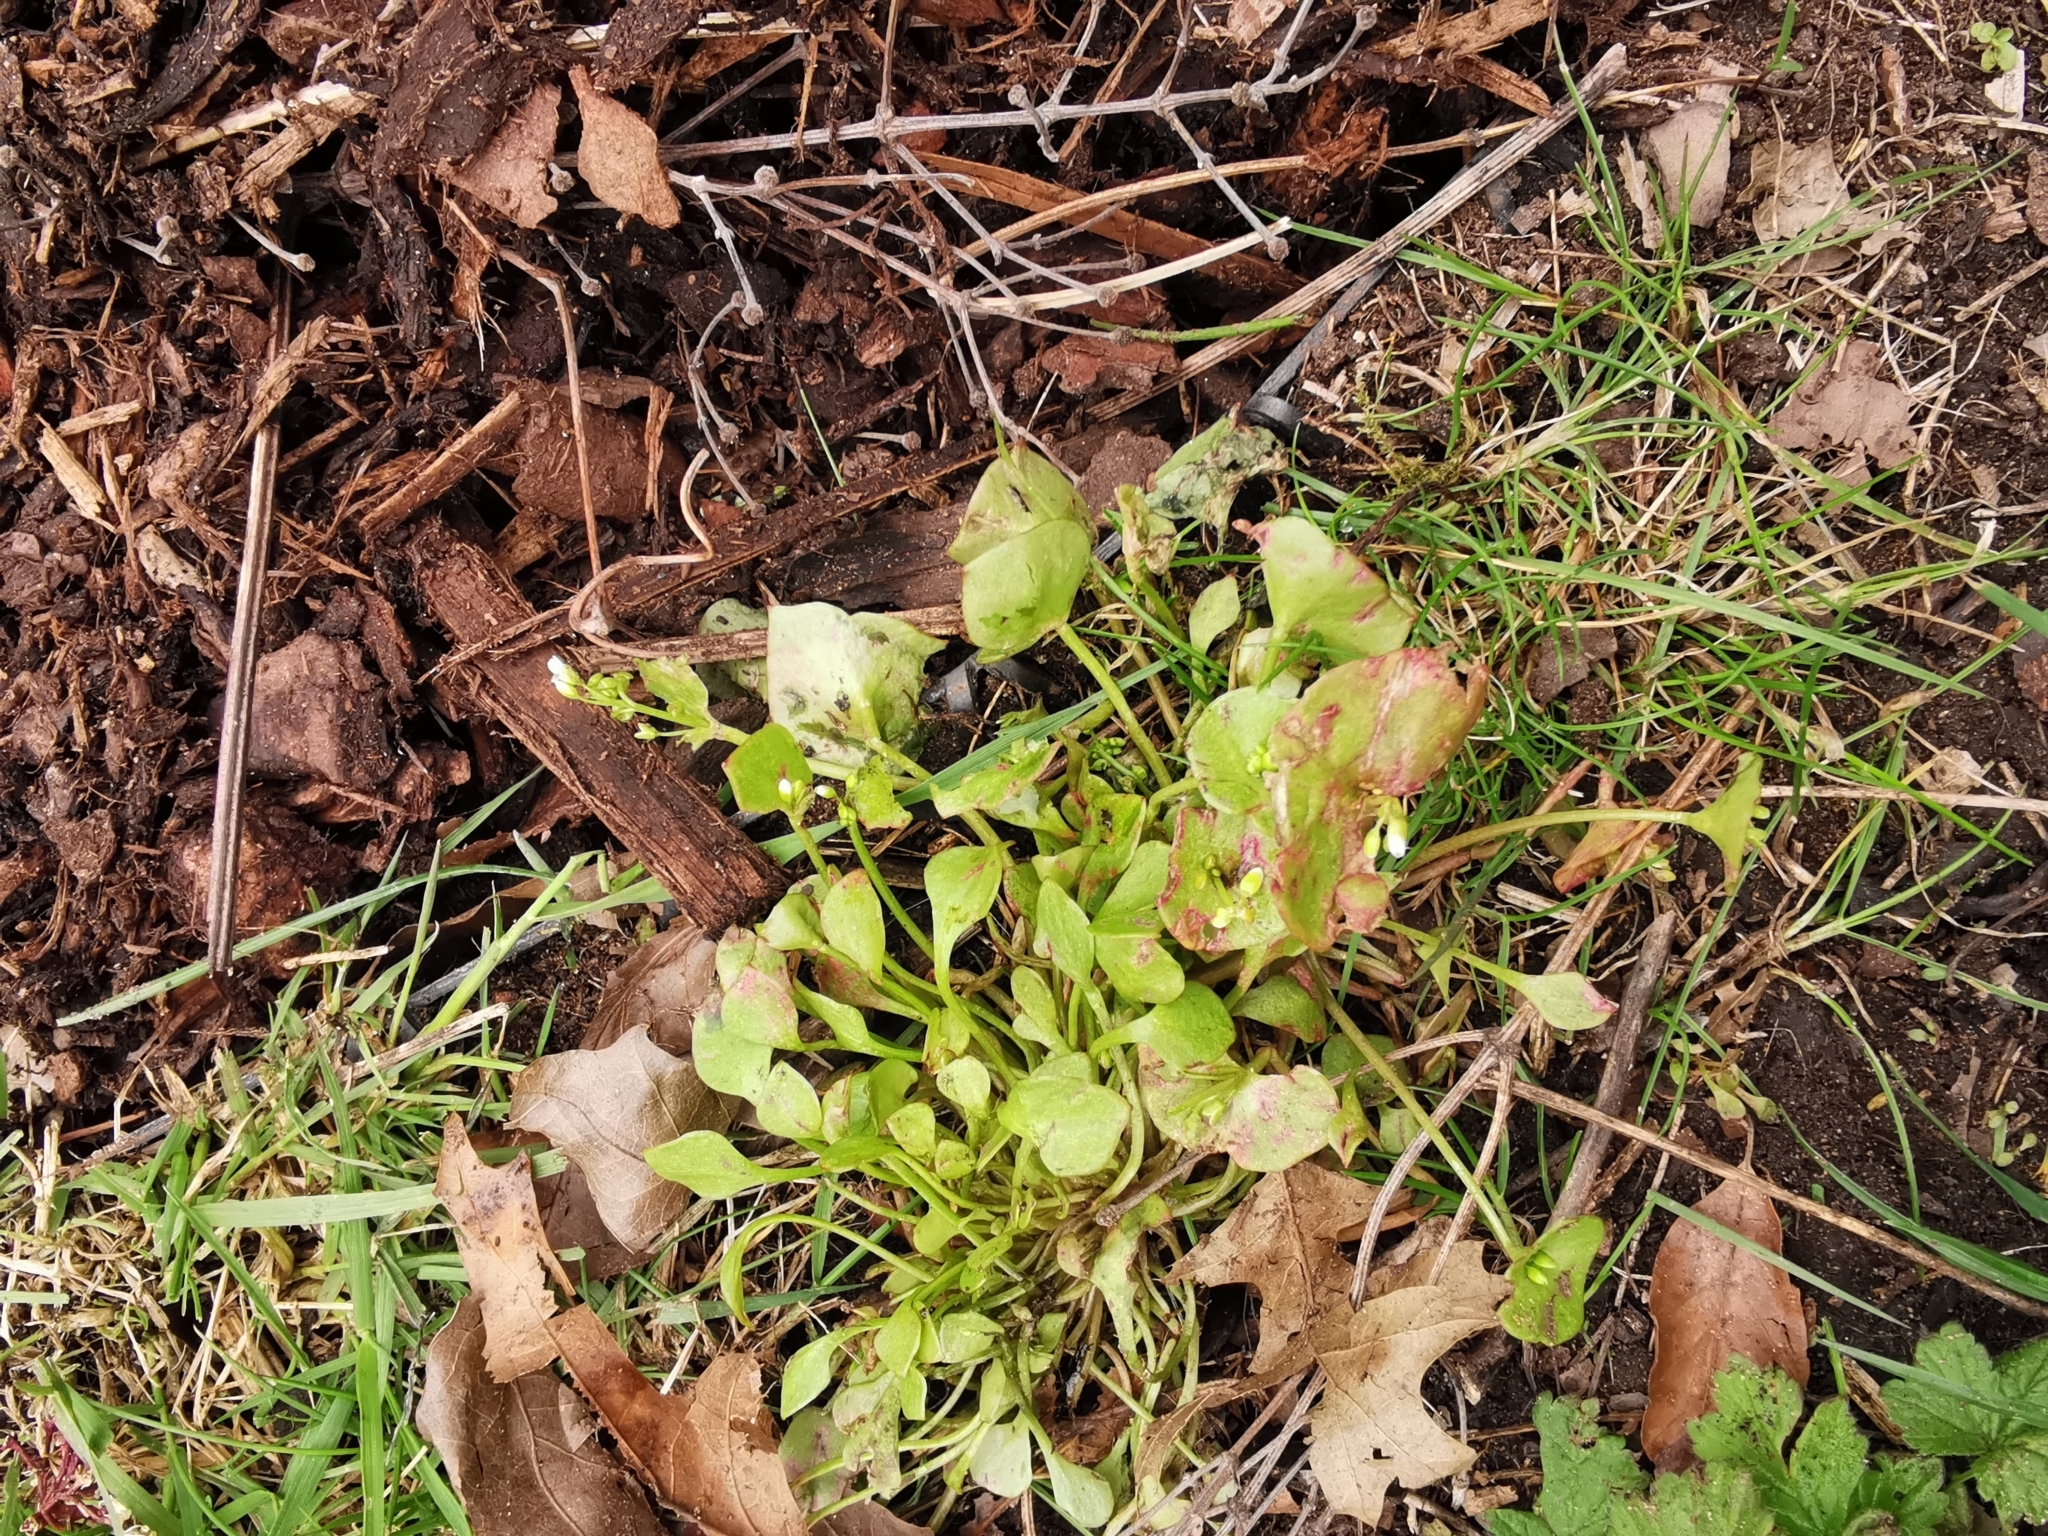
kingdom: Plantae
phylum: Tracheophyta
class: Magnoliopsida
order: Caryophyllales
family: Montiaceae
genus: Claytonia
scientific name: Claytonia perfoliata
